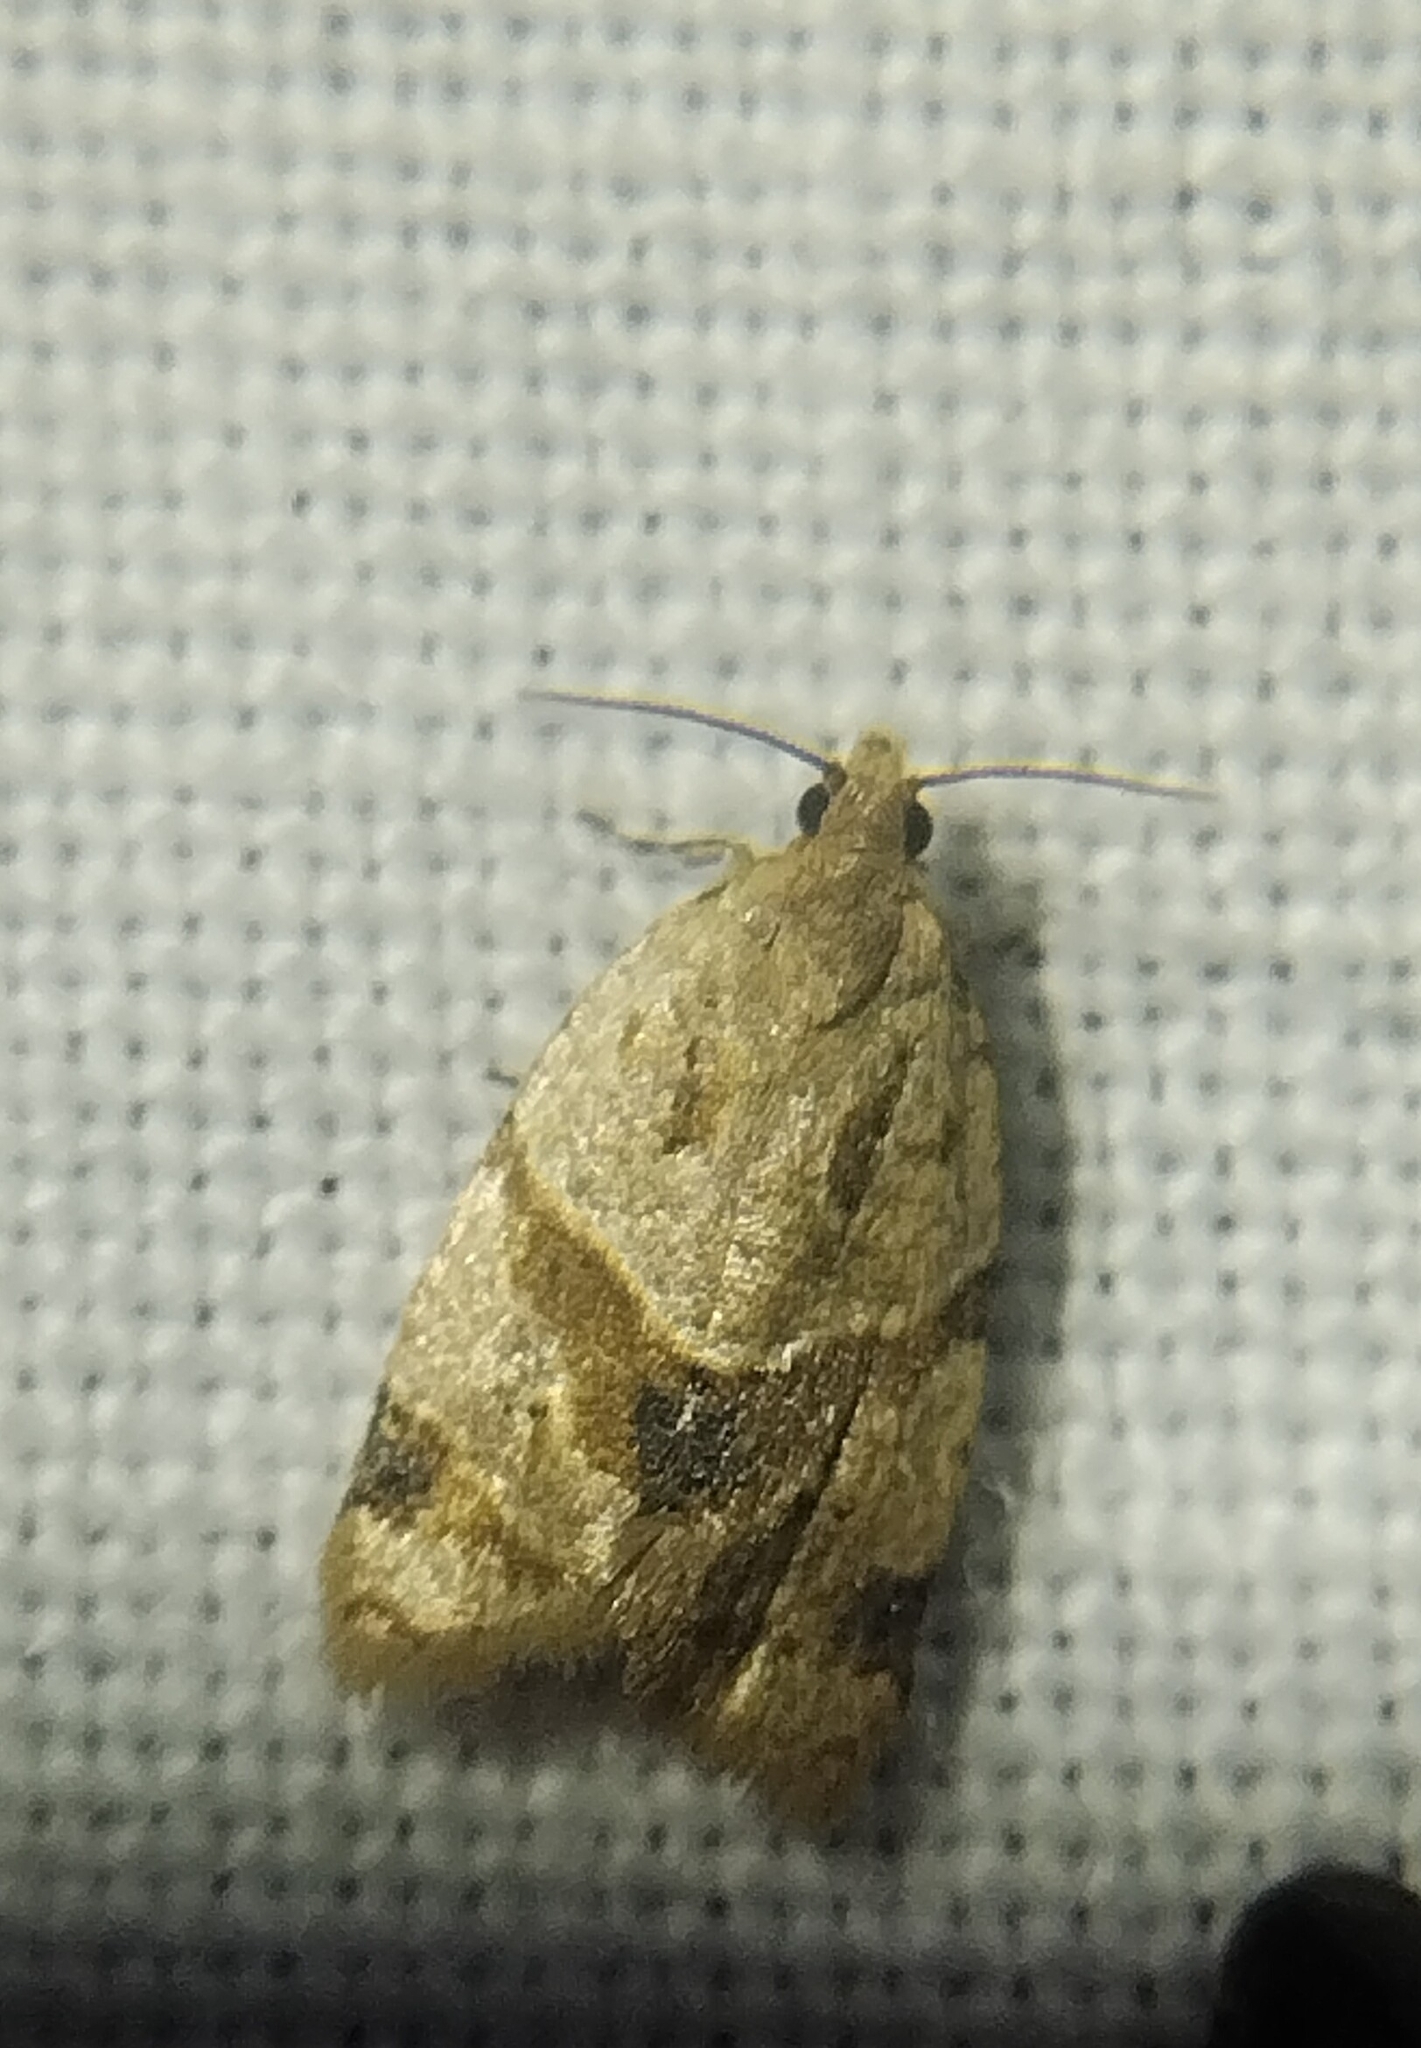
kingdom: Animalia
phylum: Arthropoda
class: Insecta
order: Lepidoptera
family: Tortricidae
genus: Clepsis
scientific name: Clepsis peritana
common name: Garden tortrix
